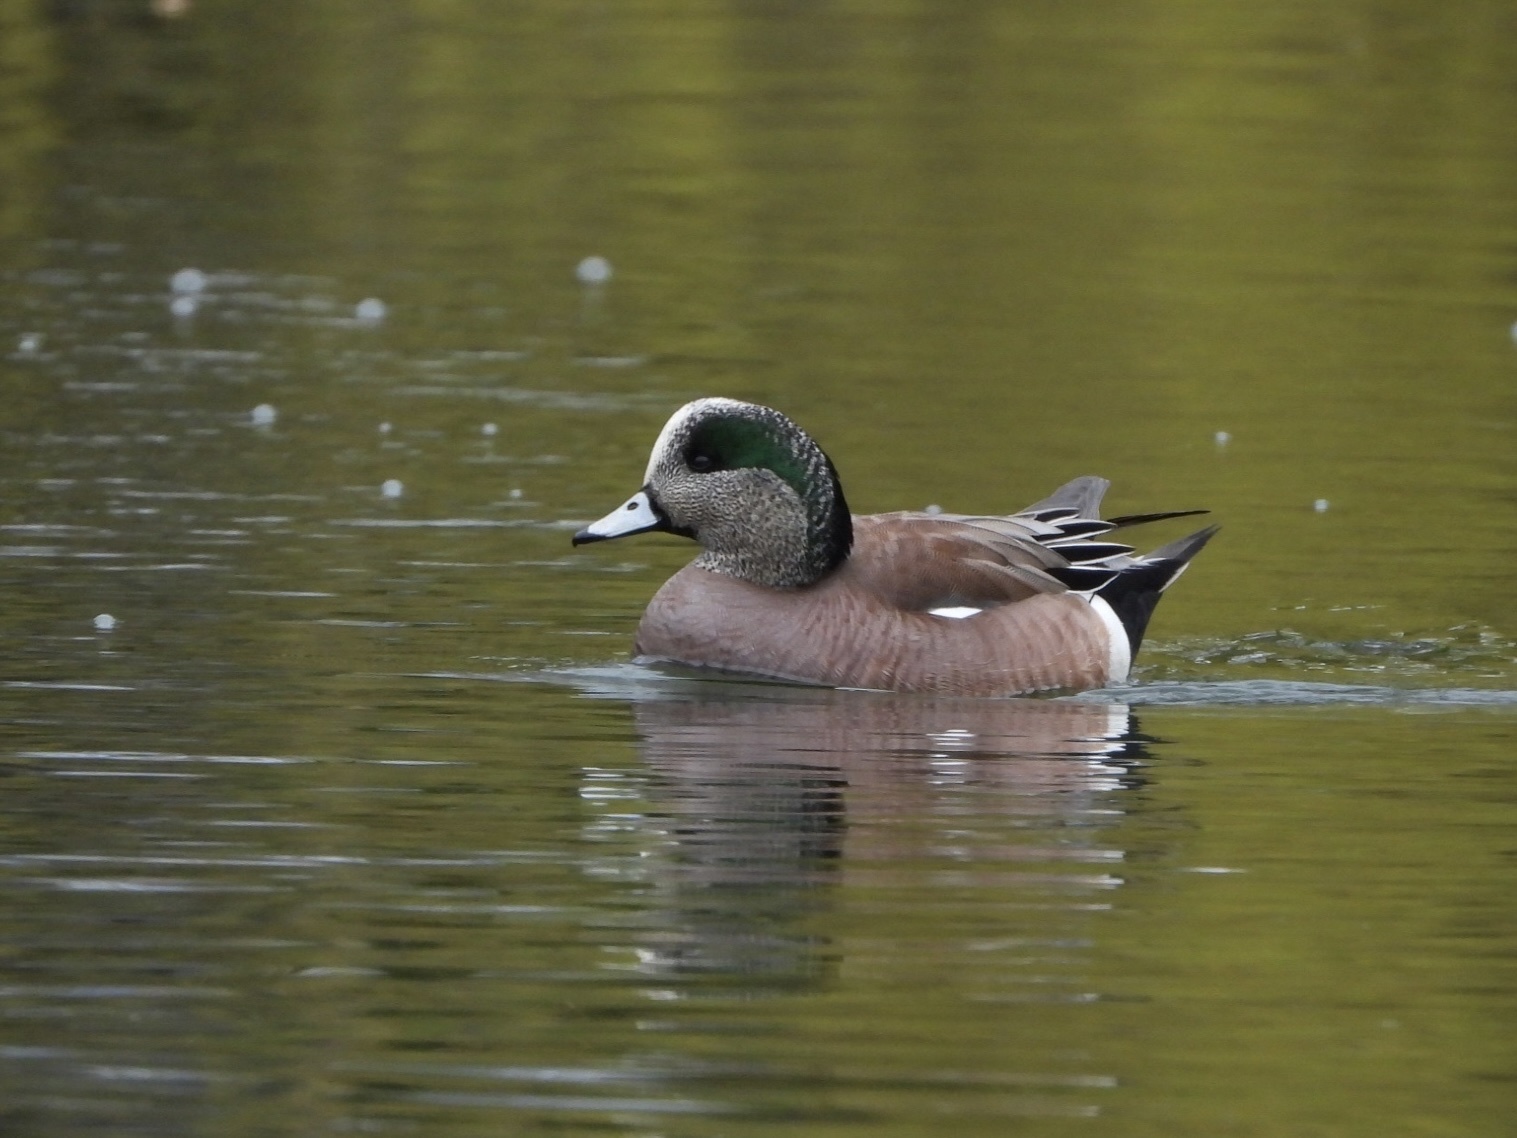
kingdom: Animalia
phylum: Chordata
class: Aves
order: Anseriformes
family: Anatidae
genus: Mareca
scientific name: Mareca americana
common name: American wigeon
